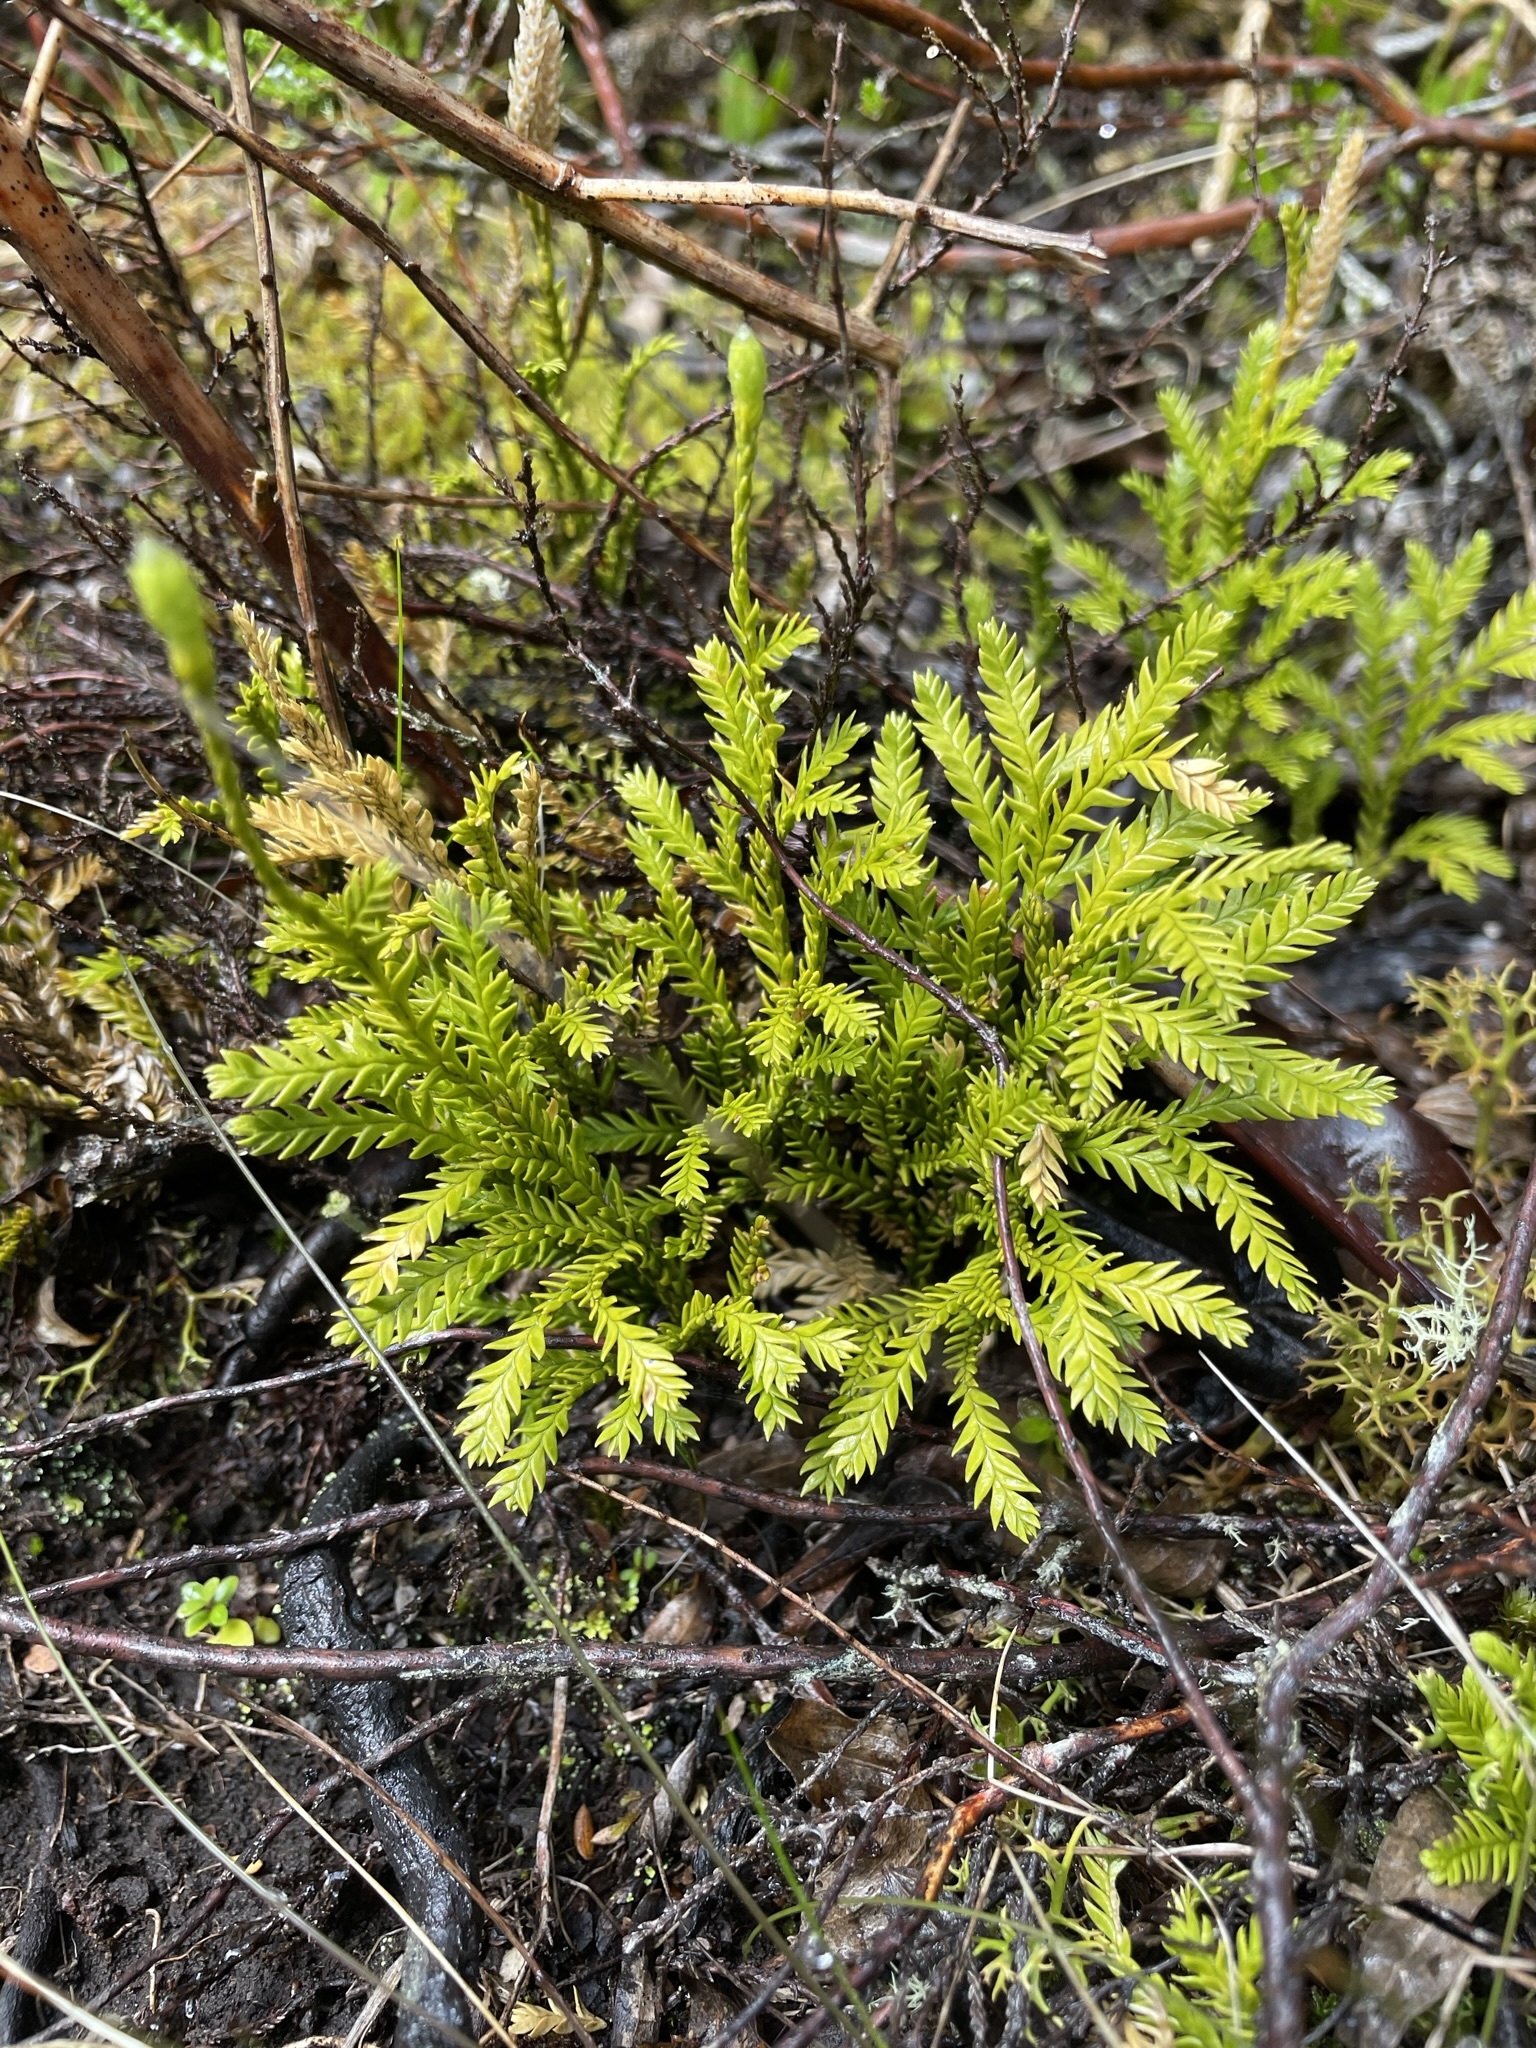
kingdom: Plantae
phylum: Tracheophyta
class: Lycopodiopsida
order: Lycopodiales
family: Lycopodiaceae
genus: Diphasium
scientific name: Diphasium scariosum
